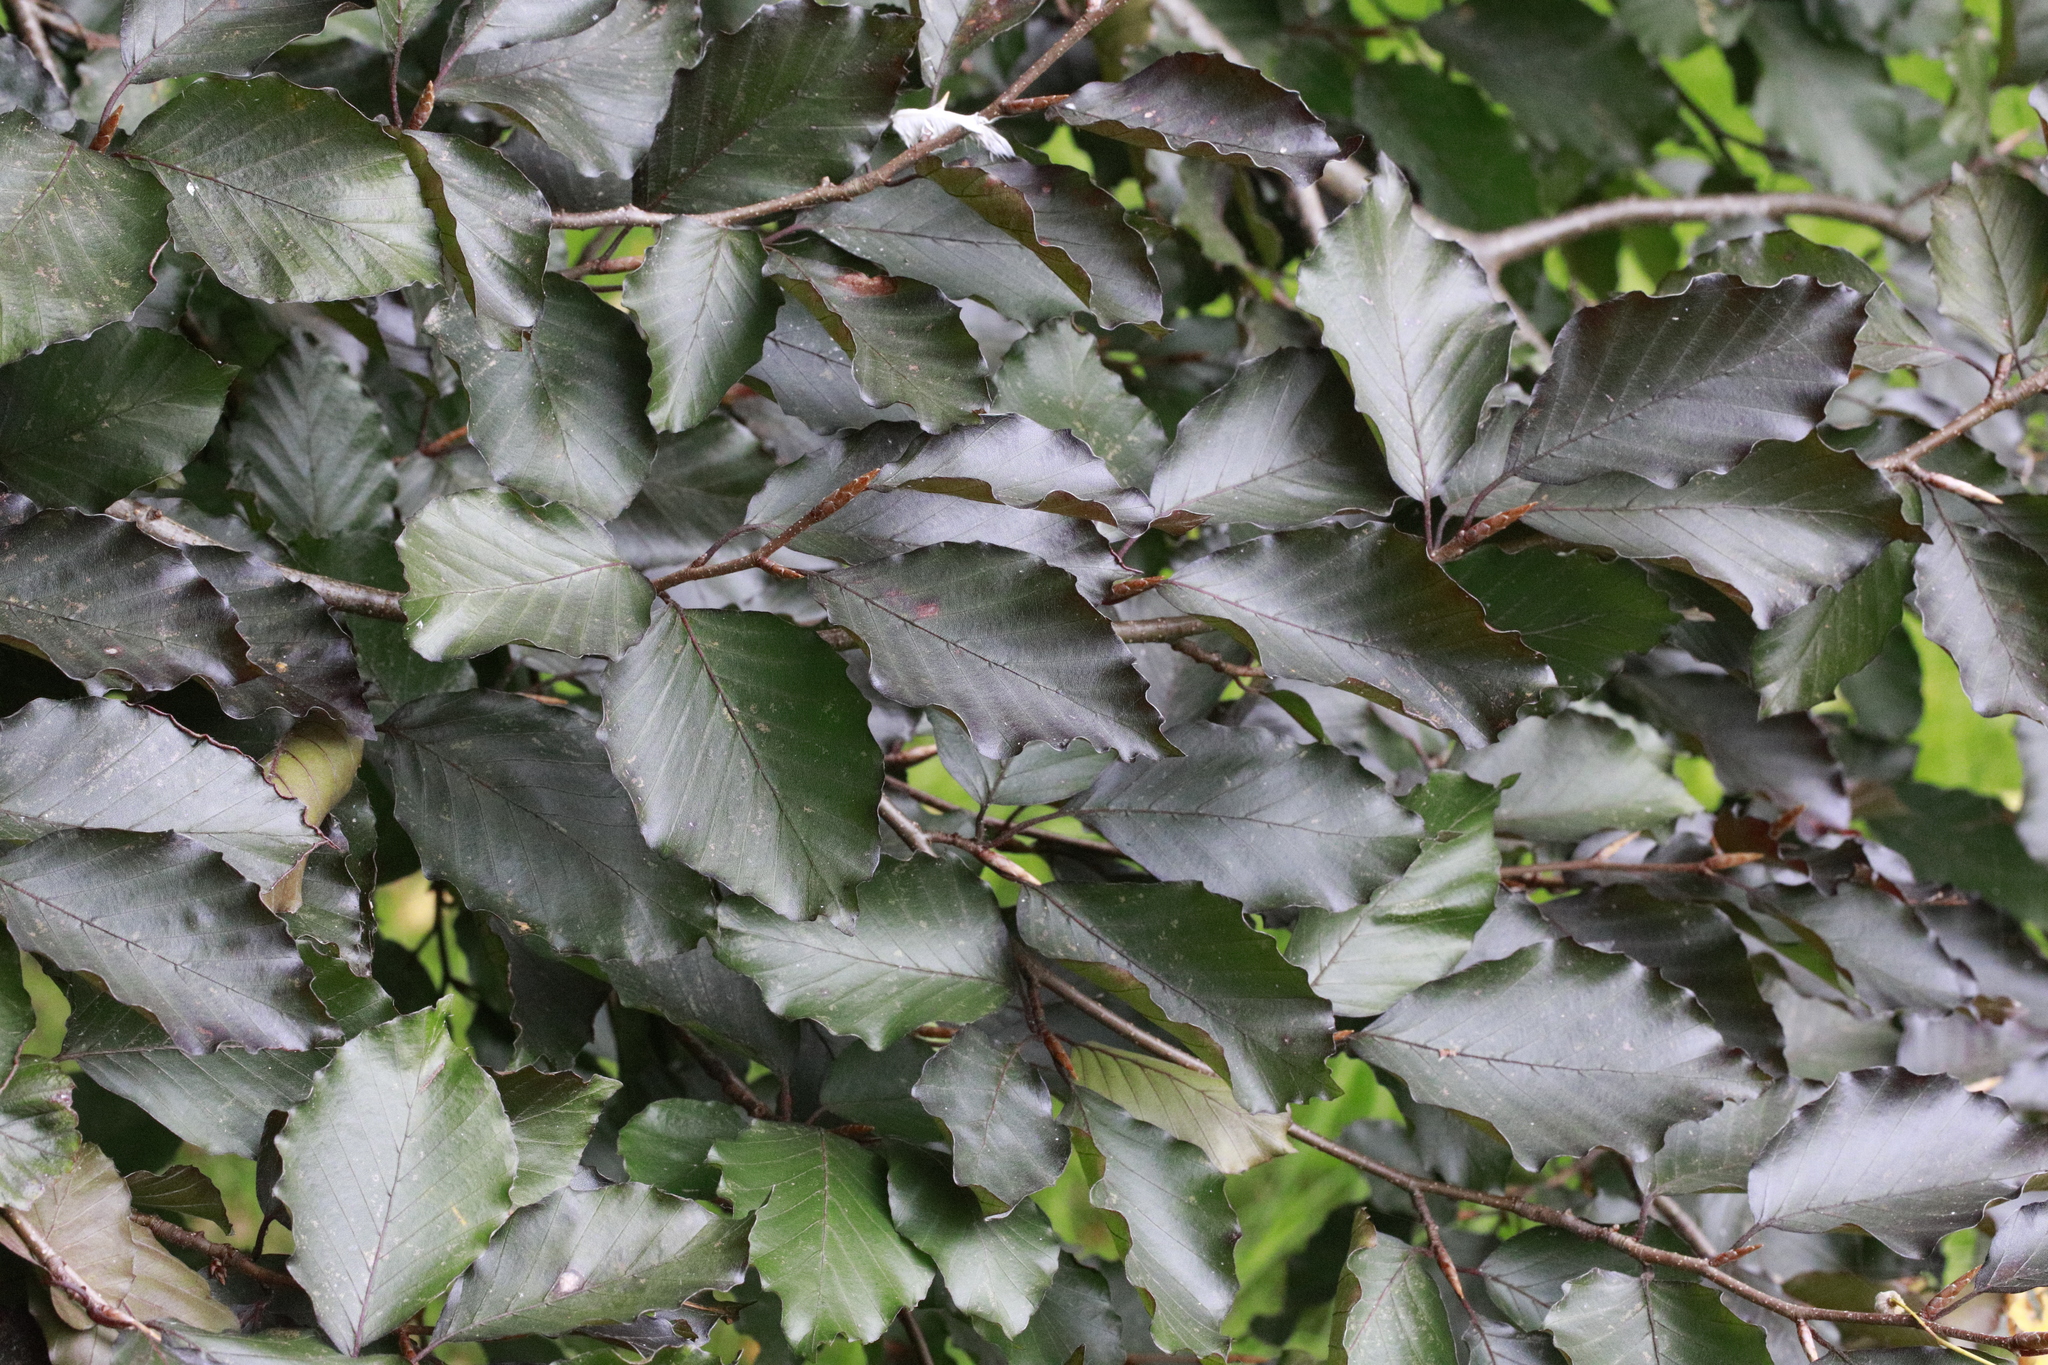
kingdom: Plantae
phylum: Tracheophyta
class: Magnoliopsida
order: Fagales
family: Fagaceae
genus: Fagus
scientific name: Fagus sylvatica
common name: Beech
